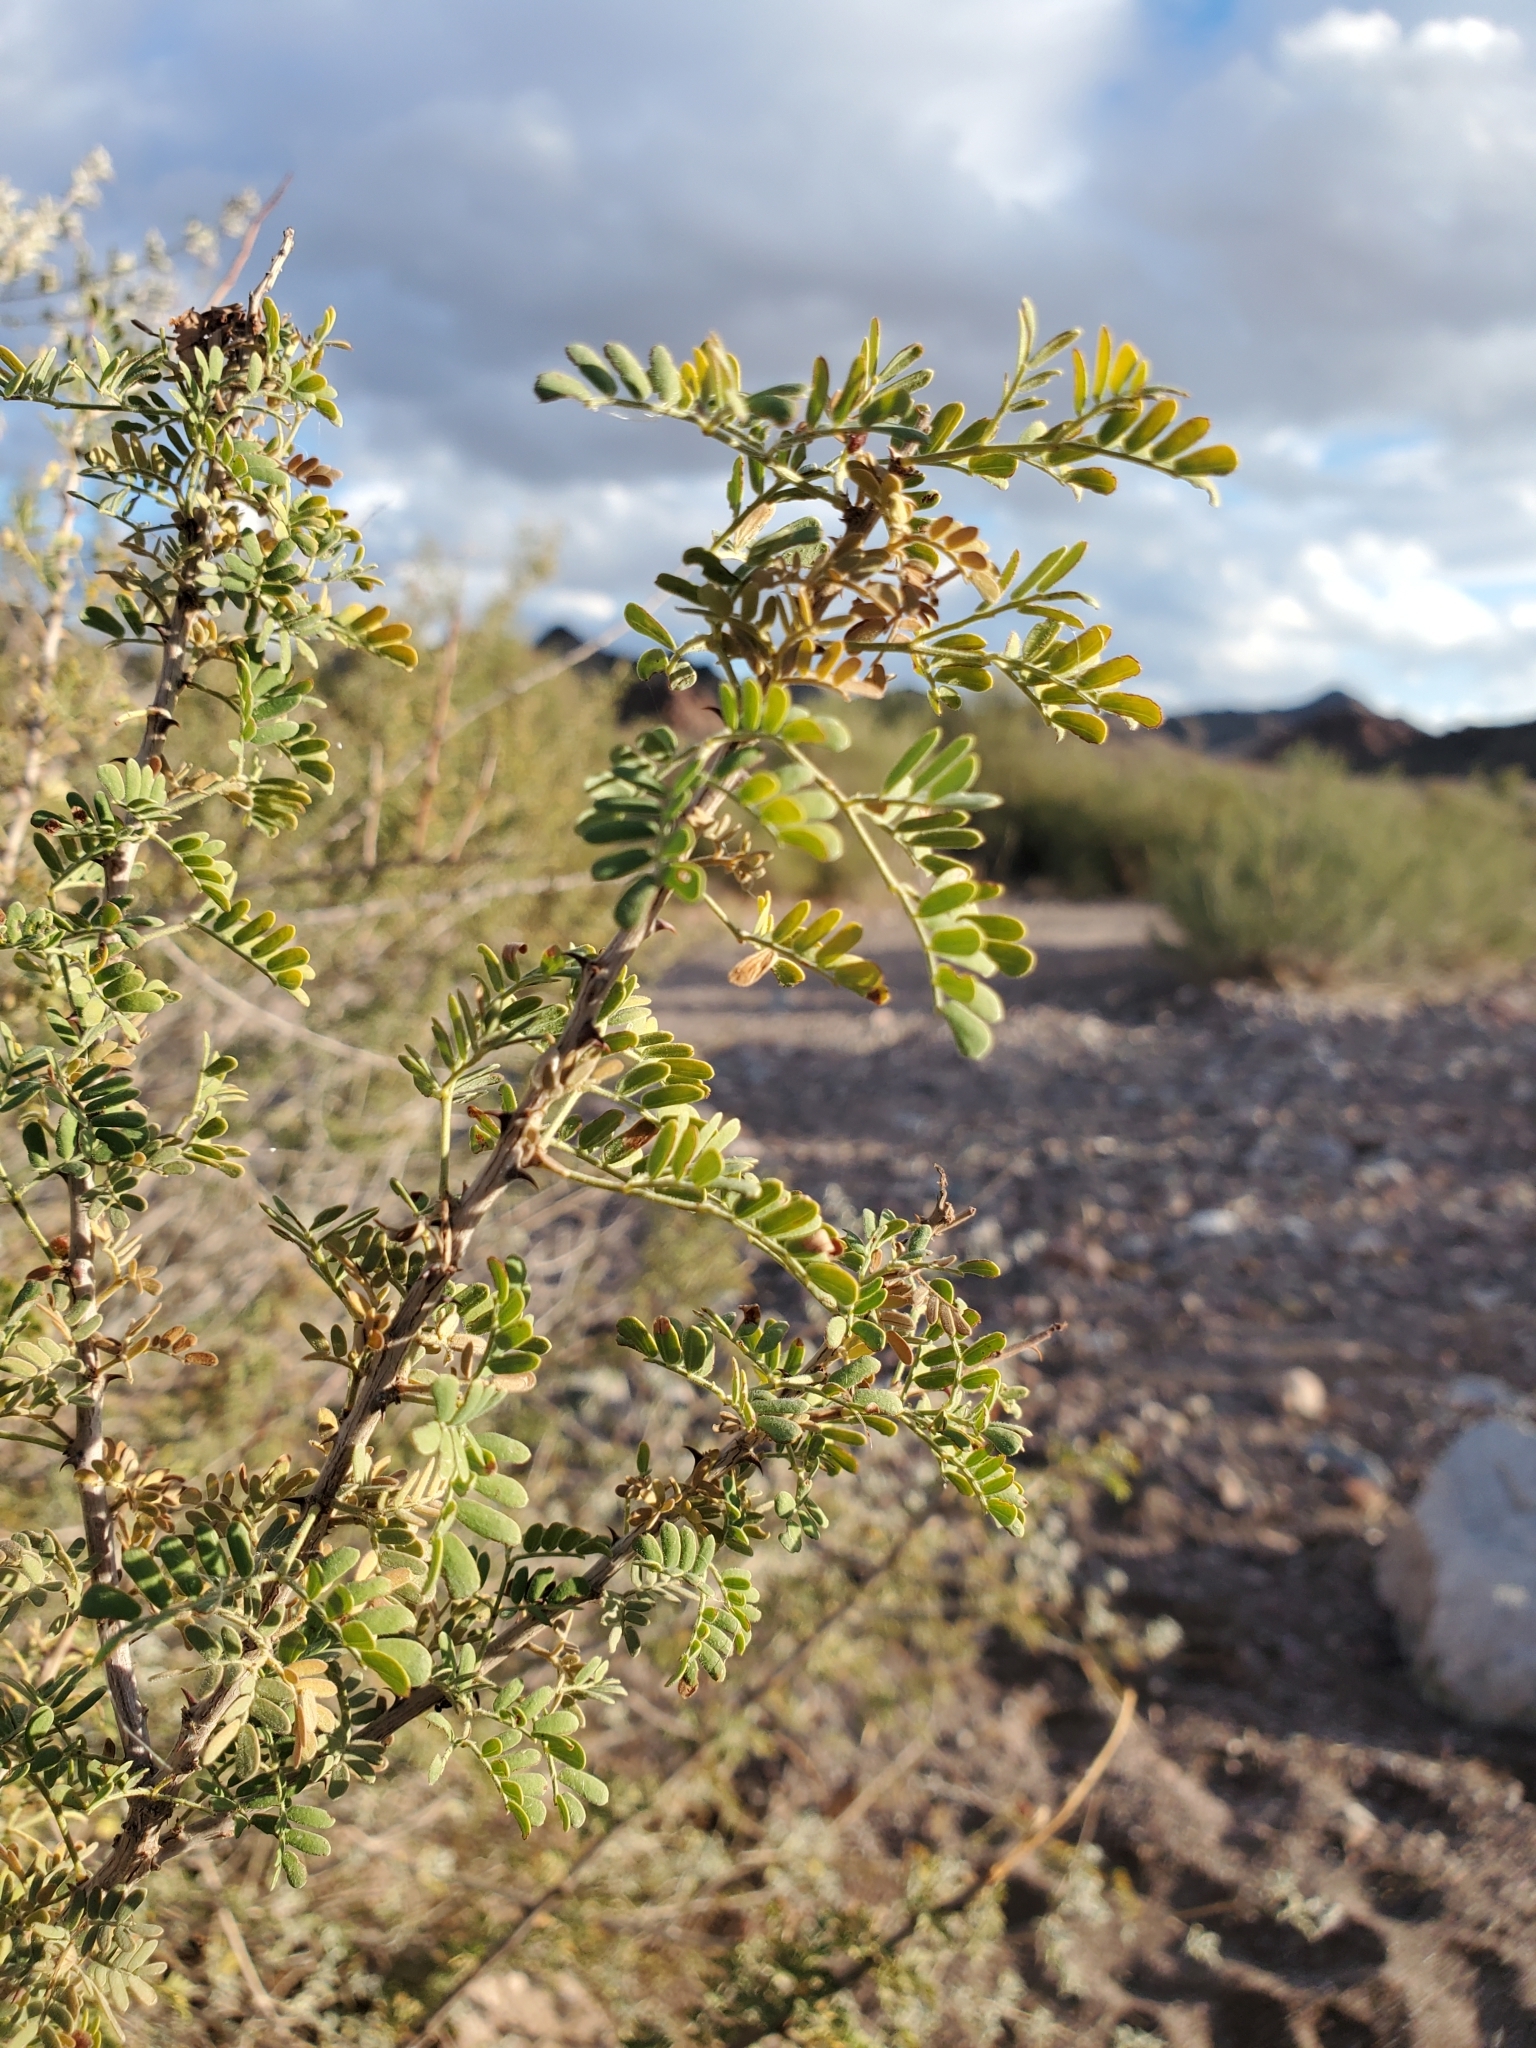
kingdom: Plantae
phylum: Tracheophyta
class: Magnoliopsida
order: Fabales
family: Fabaceae
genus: Senegalia
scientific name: Senegalia greggii
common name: Texas-mimosa
